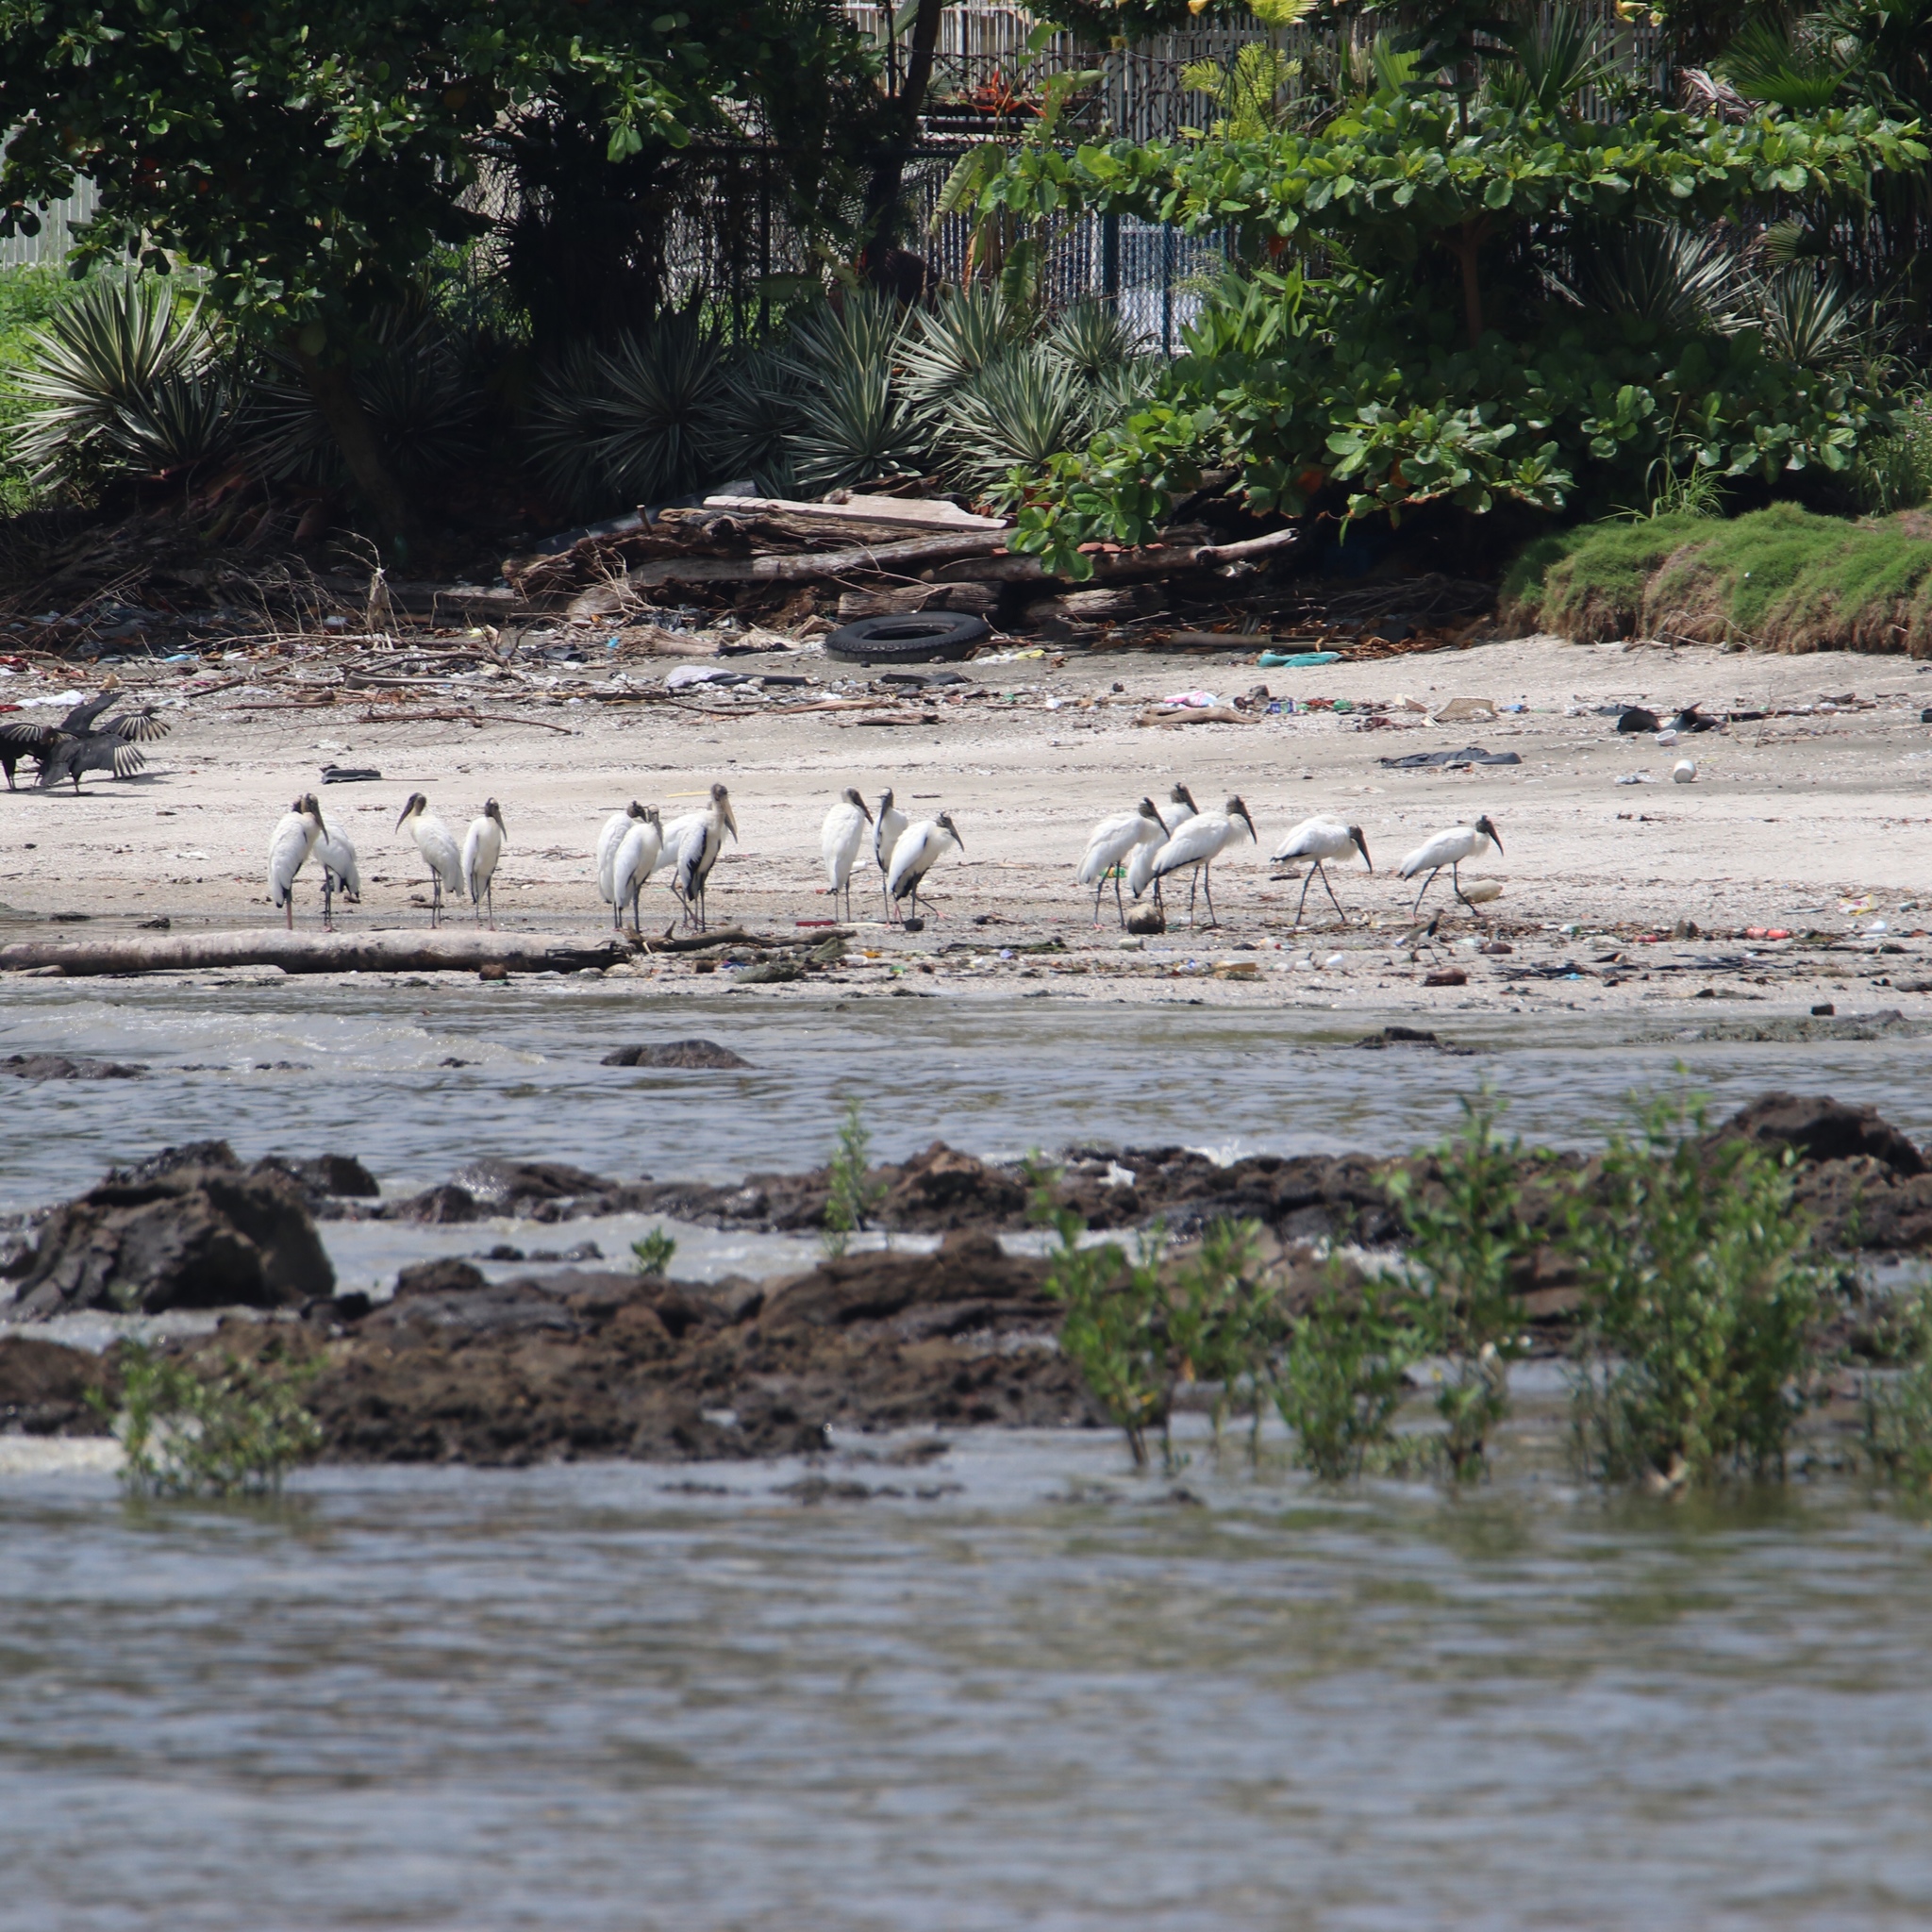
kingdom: Animalia
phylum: Chordata
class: Aves
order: Ciconiiformes
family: Ciconiidae
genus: Mycteria
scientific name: Mycteria americana
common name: Wood stork
